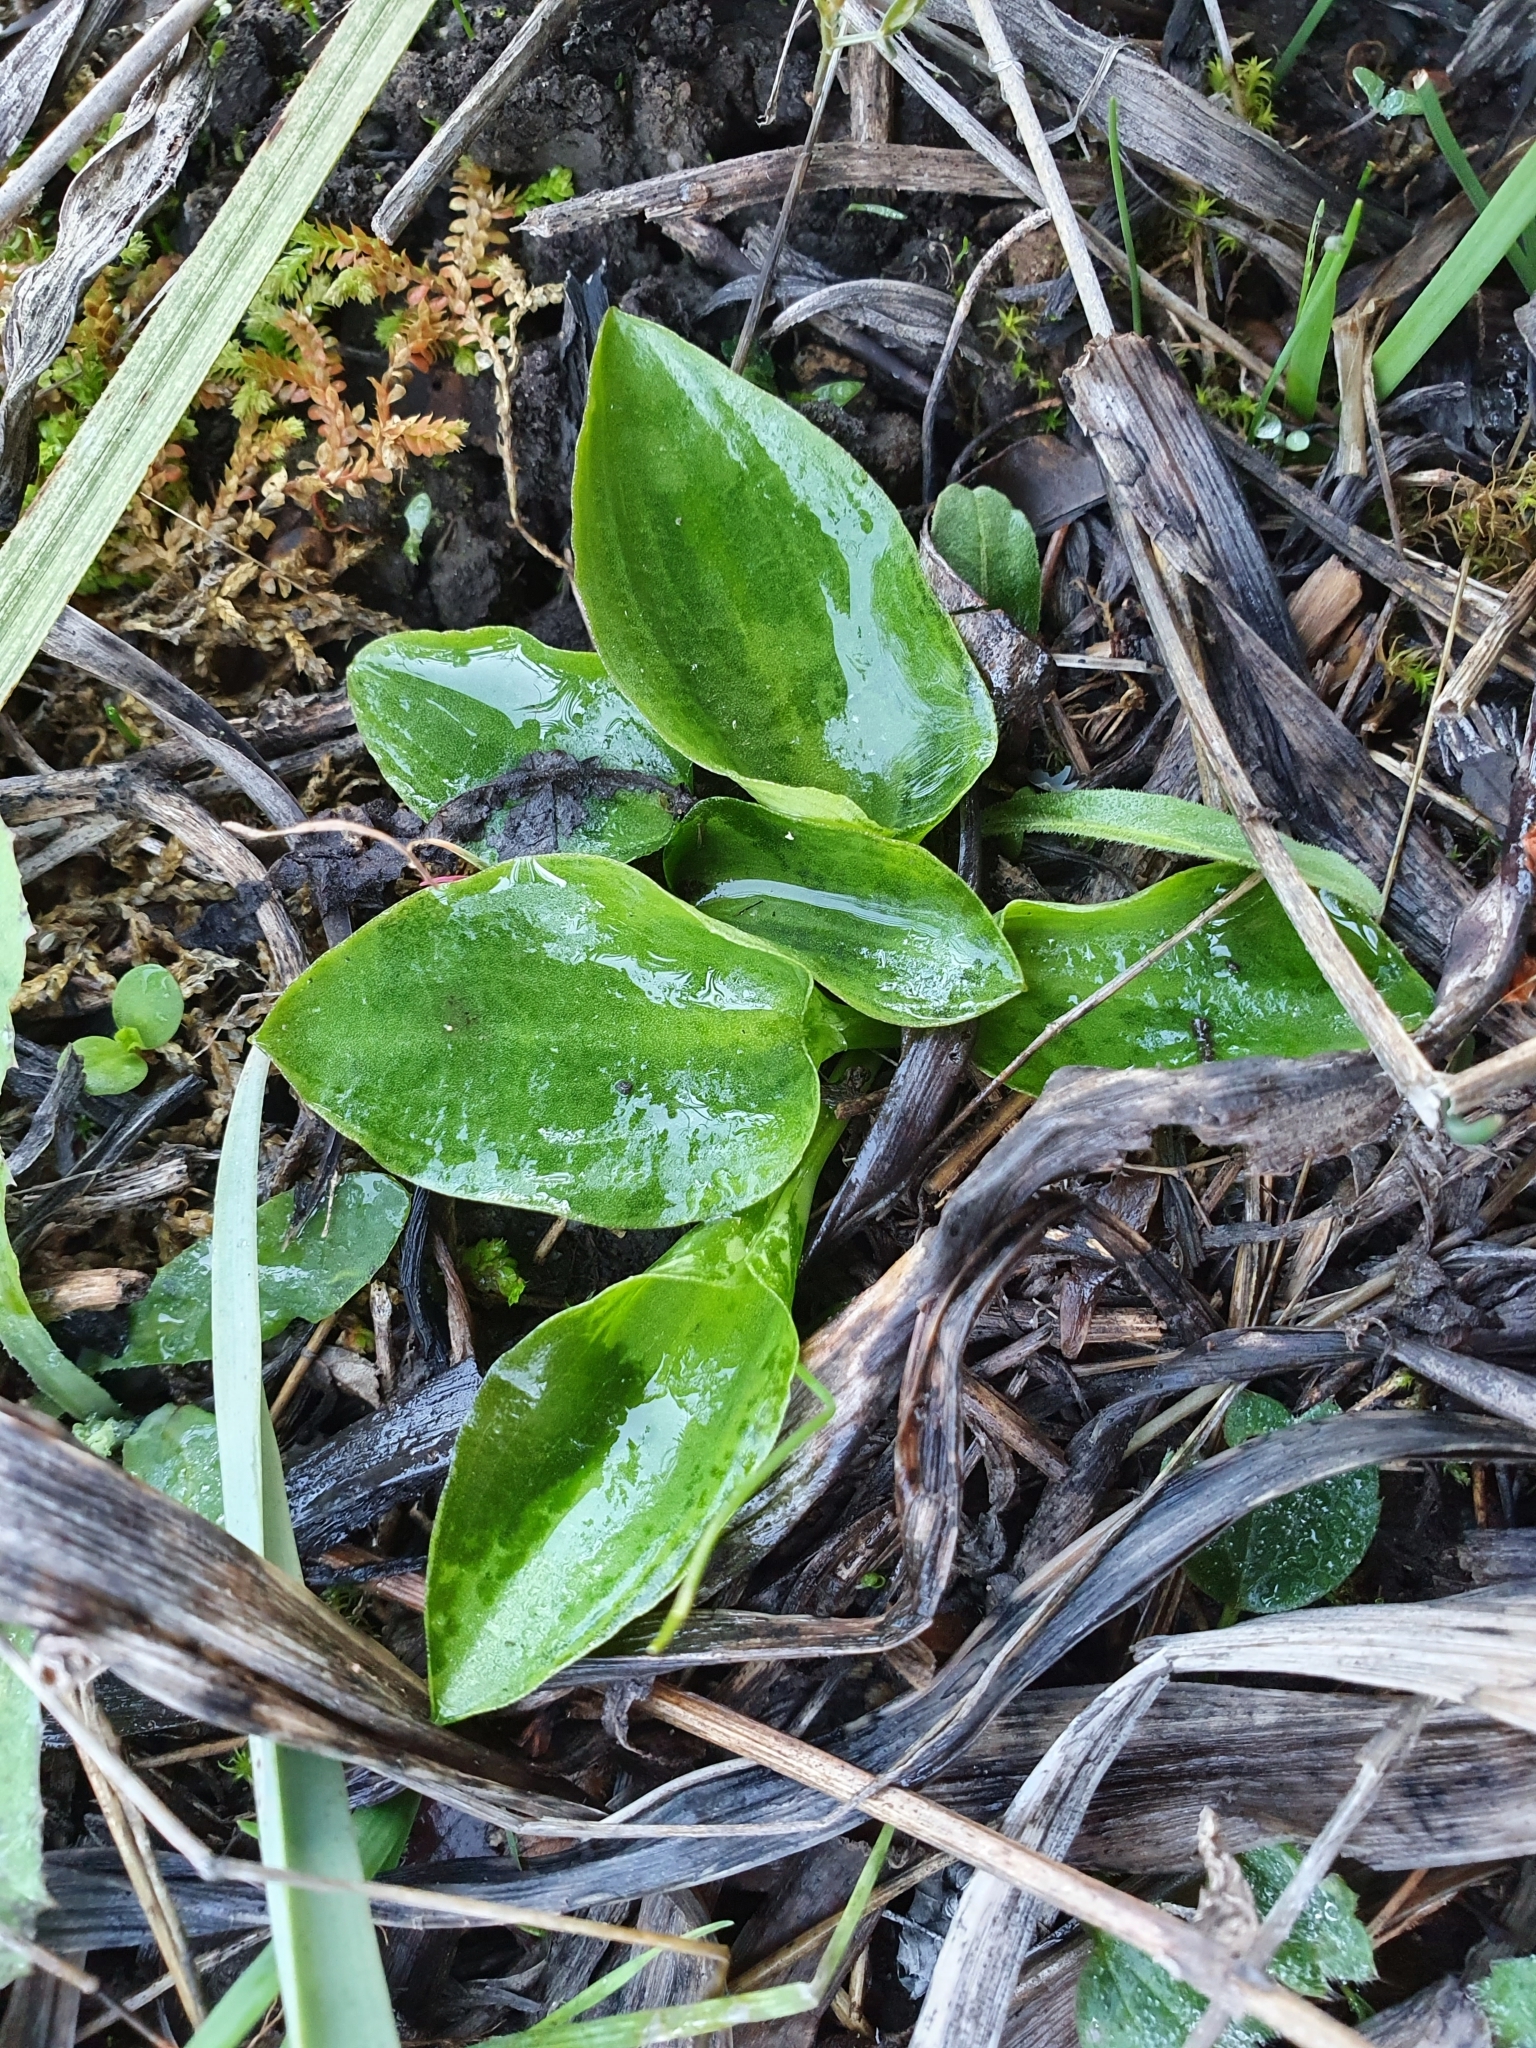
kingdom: Plantae
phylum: Tracheophyta
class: Liliopsida
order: Alismatales
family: Araceae
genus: Ambrosina
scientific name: Ambrosina bassii
